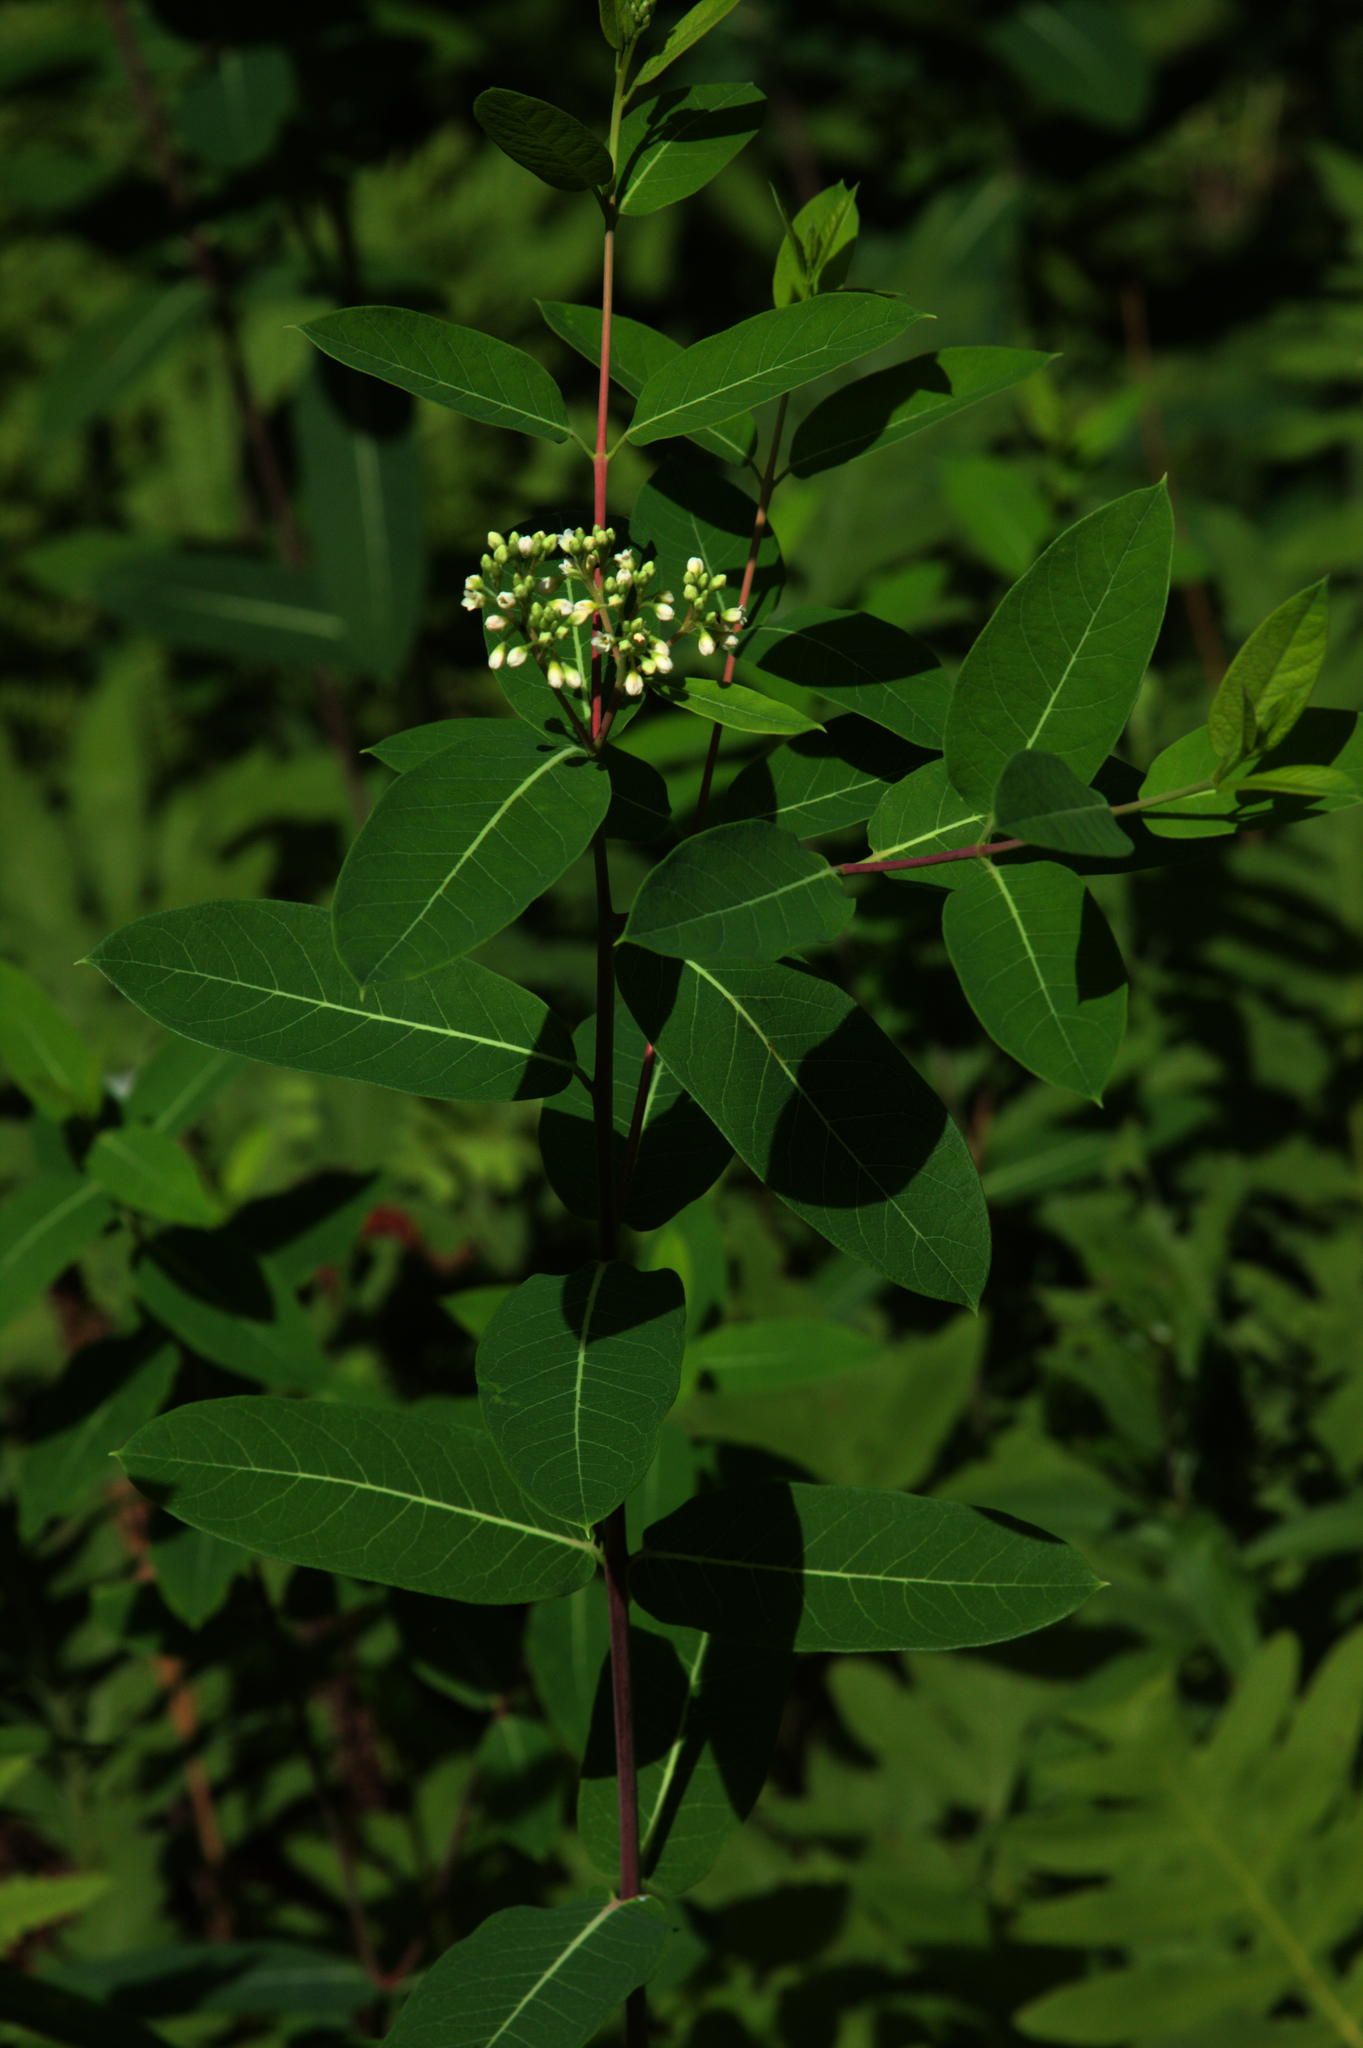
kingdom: Plantae
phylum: Tracheophyta
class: Magnoliopsida
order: Gentianales
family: Apocynaceae
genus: Apocynum
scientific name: Apocynum cannabinum
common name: Hemp dogbane
